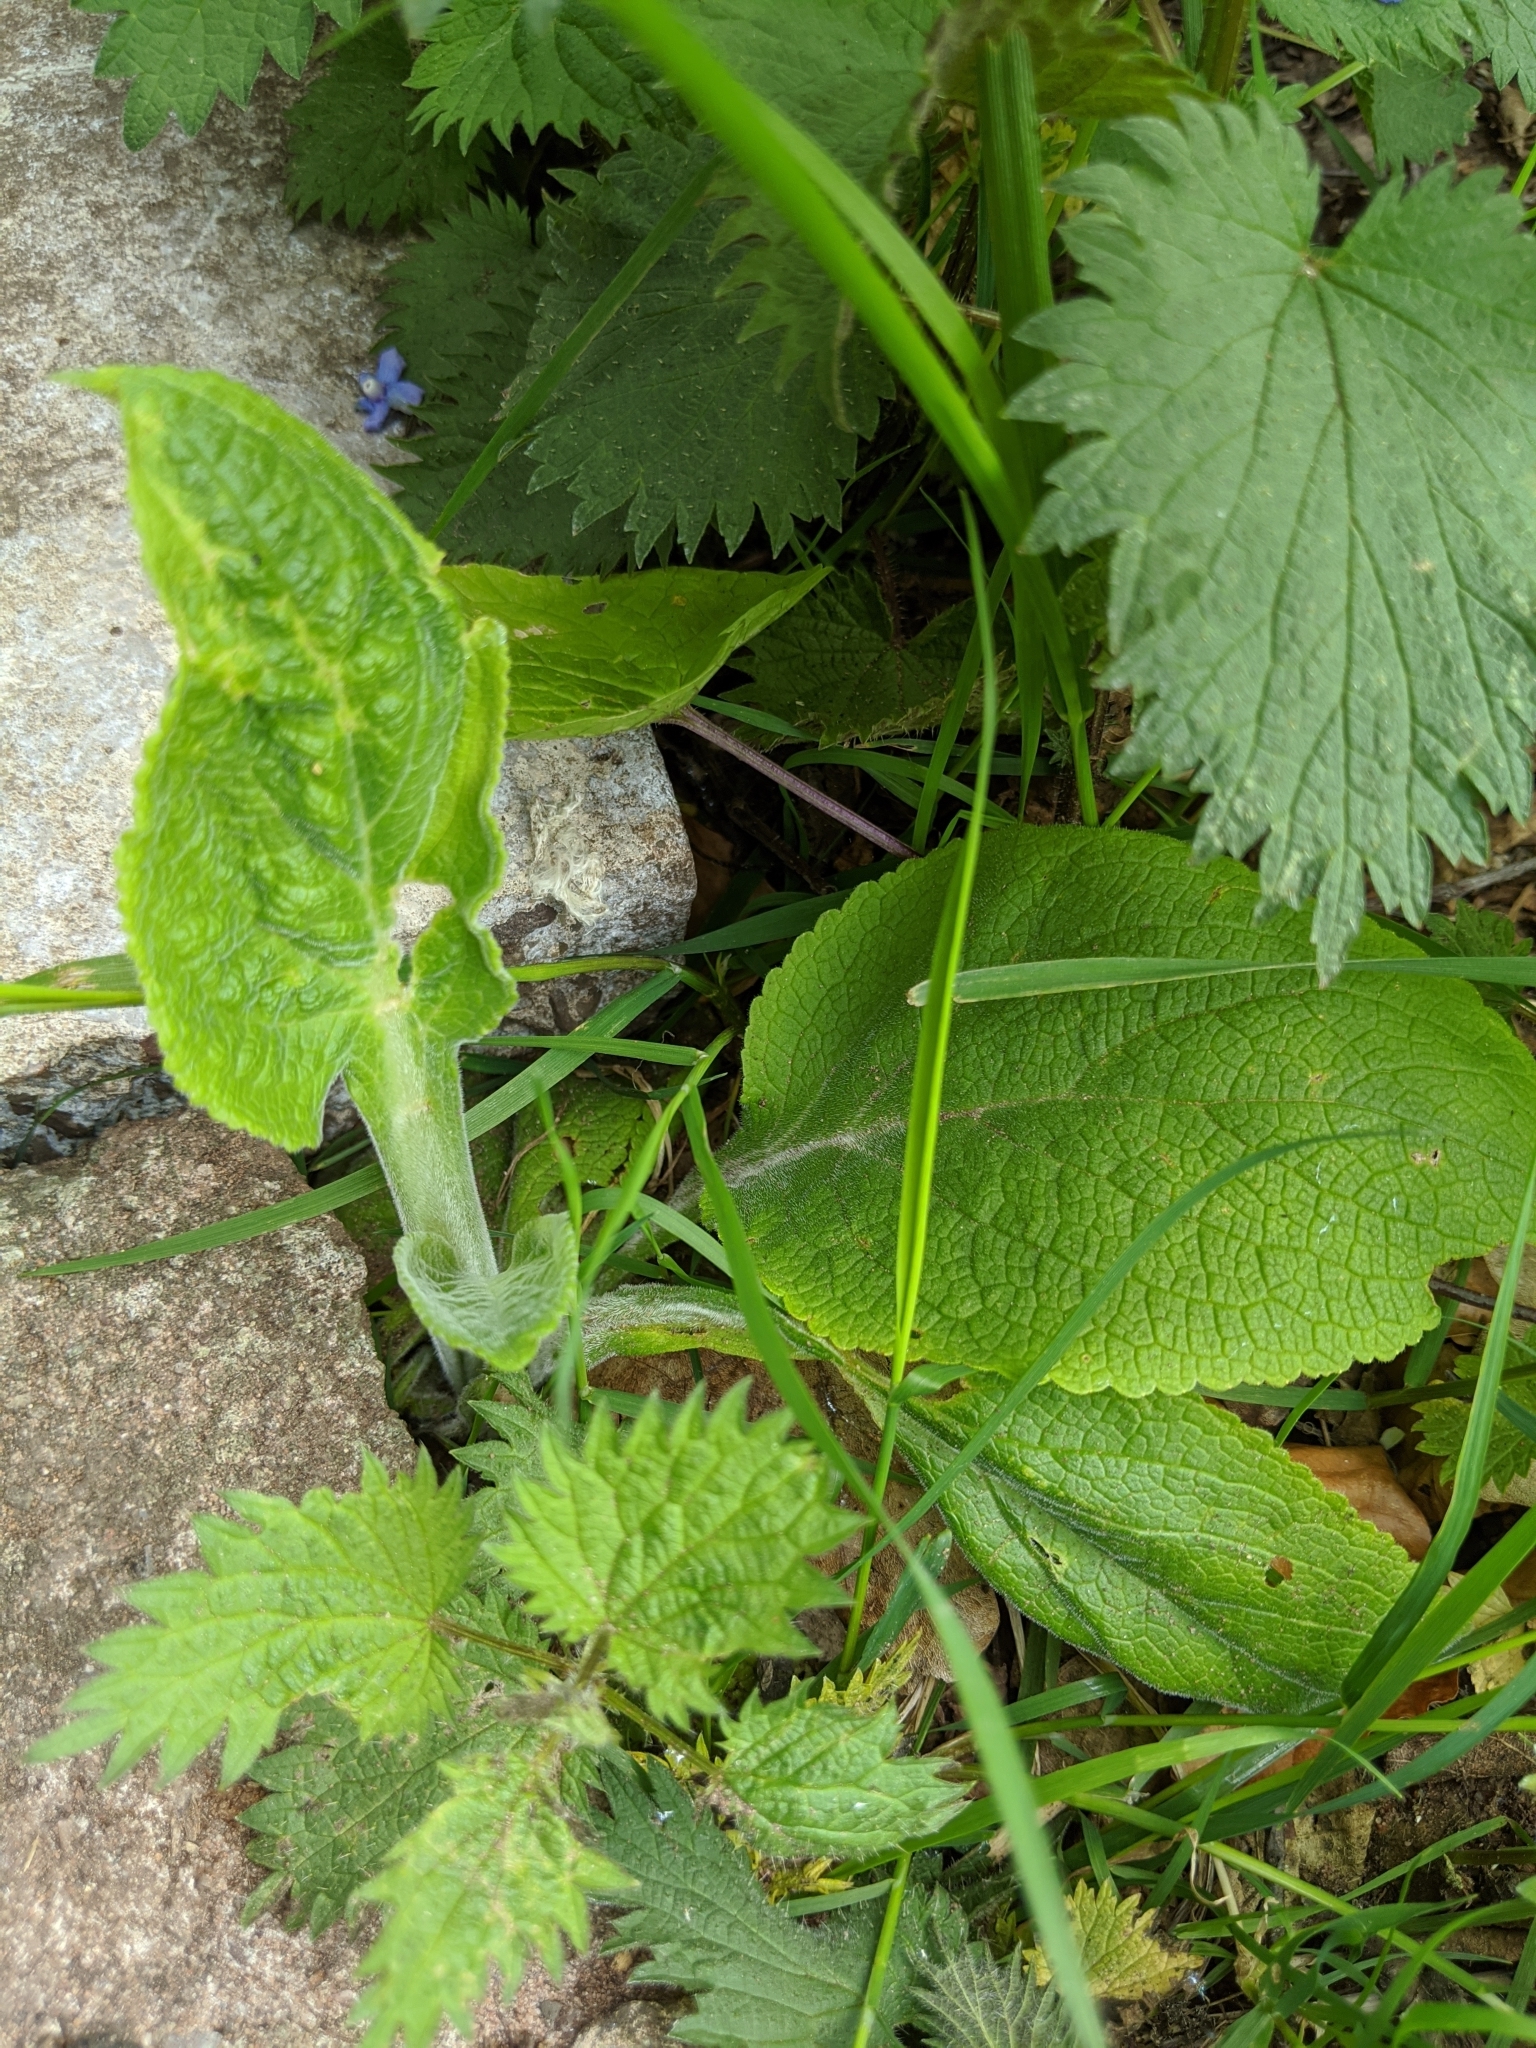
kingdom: Plantae
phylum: Tracheophyta
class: Magnoliopsida
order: Lamiales
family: Plantaginaceae
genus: Digitalis
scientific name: Digitalis purpurea
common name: Foxglove
